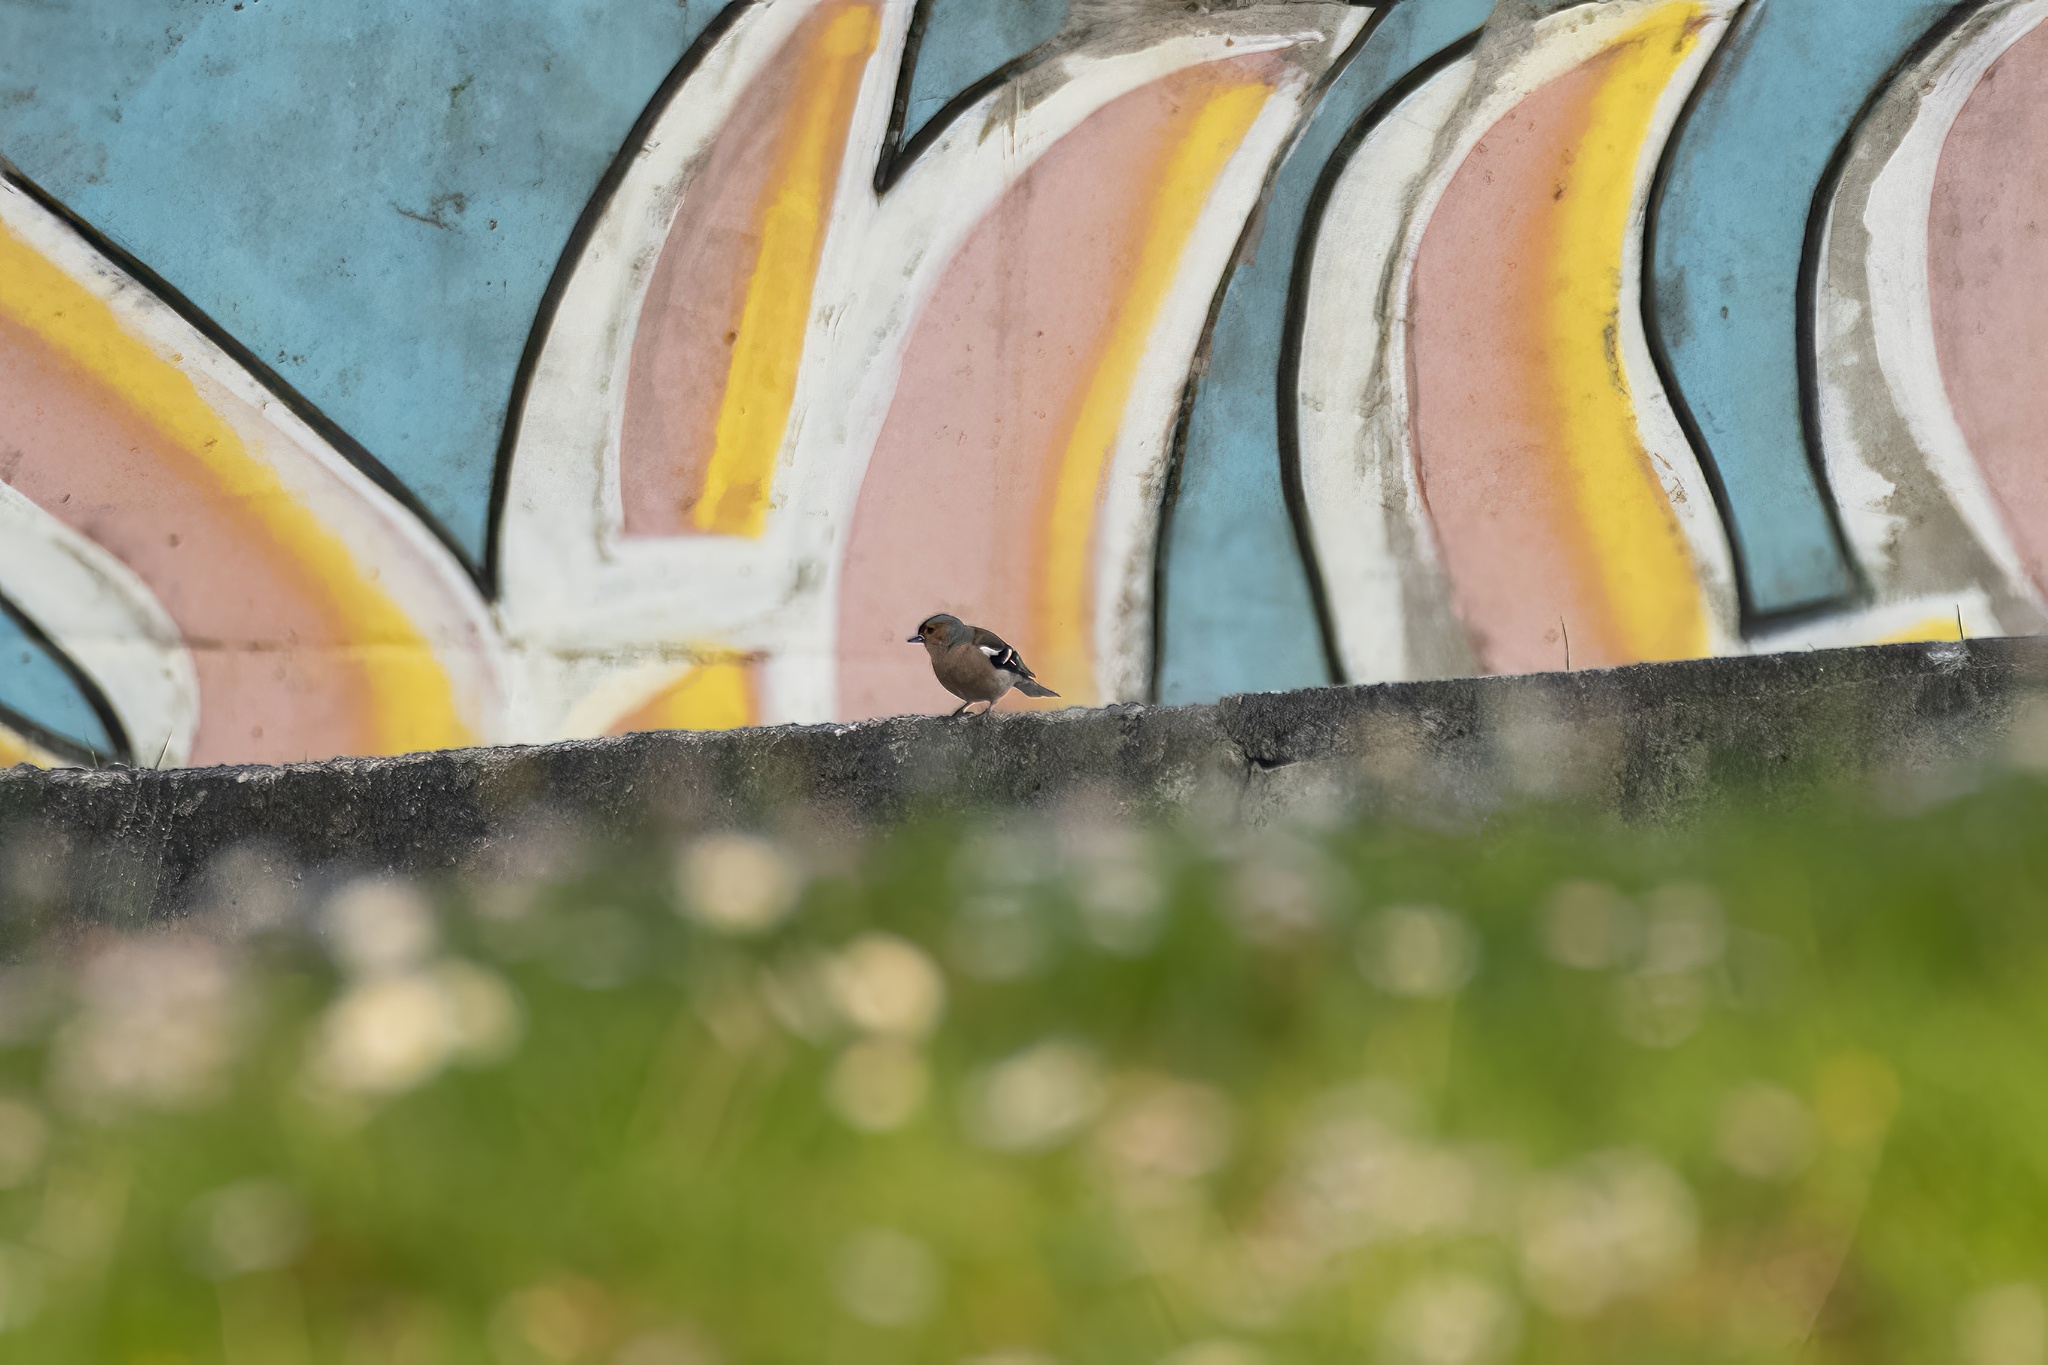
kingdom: Animalia
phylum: Chordata
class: Aves
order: Passeriformes
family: Fringillidae
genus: Fringilla
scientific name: Fringilla coelebs
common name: Common chaffinch
